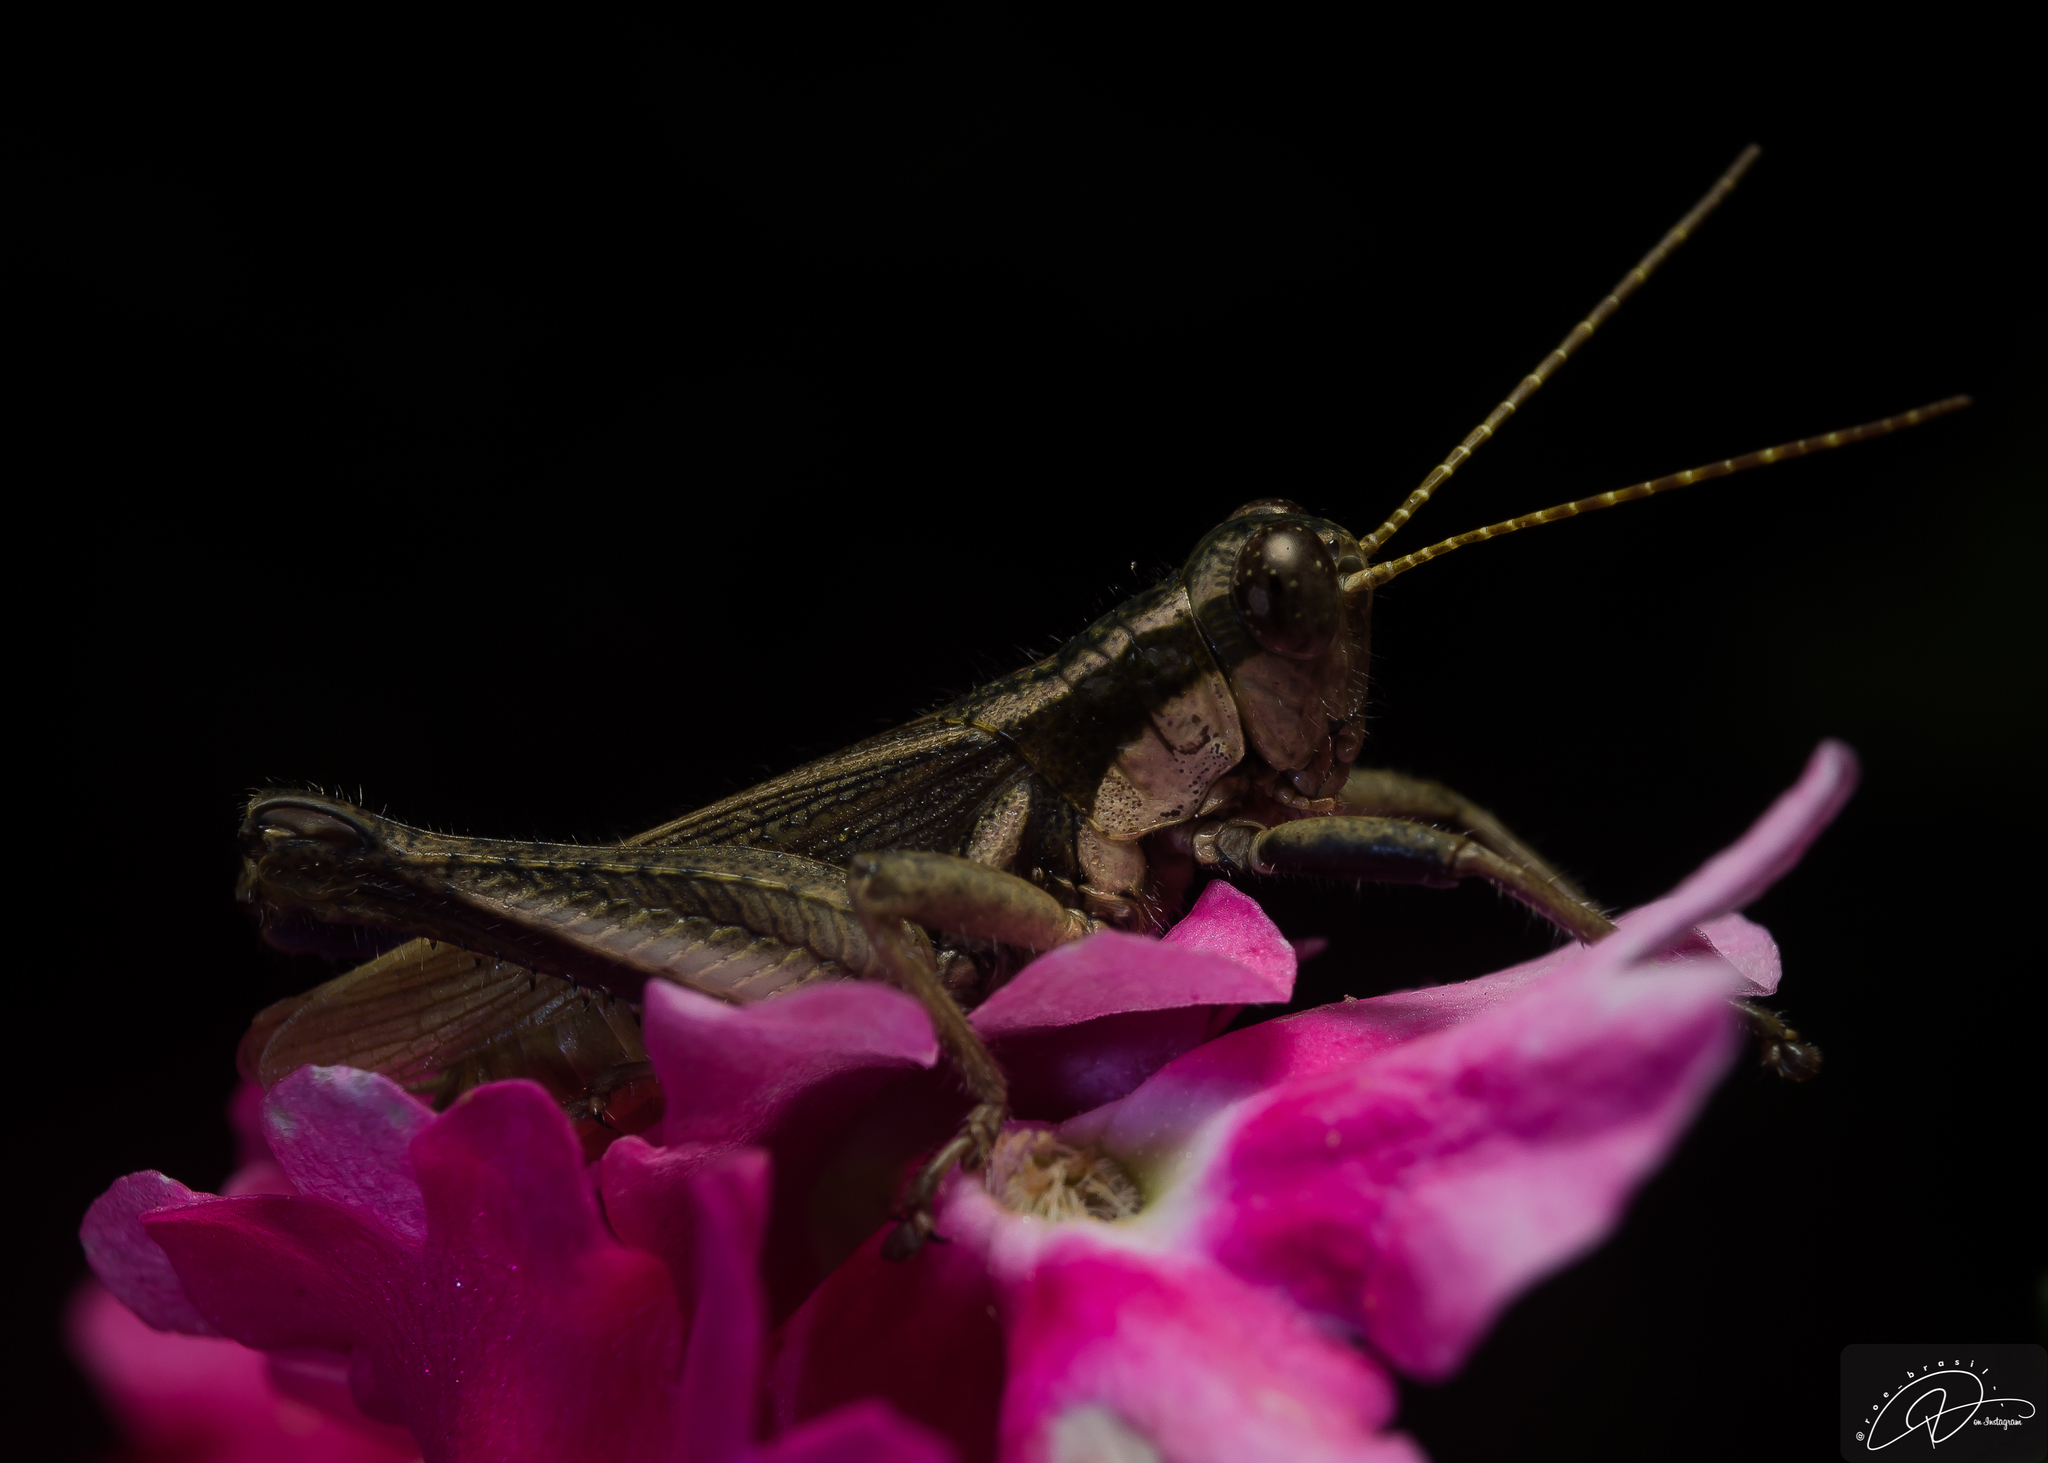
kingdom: Animalia
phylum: Arthropoda
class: Insecta
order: Orthoptera
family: Acrididae
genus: Ronderosia
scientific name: Ronderosia bergii
